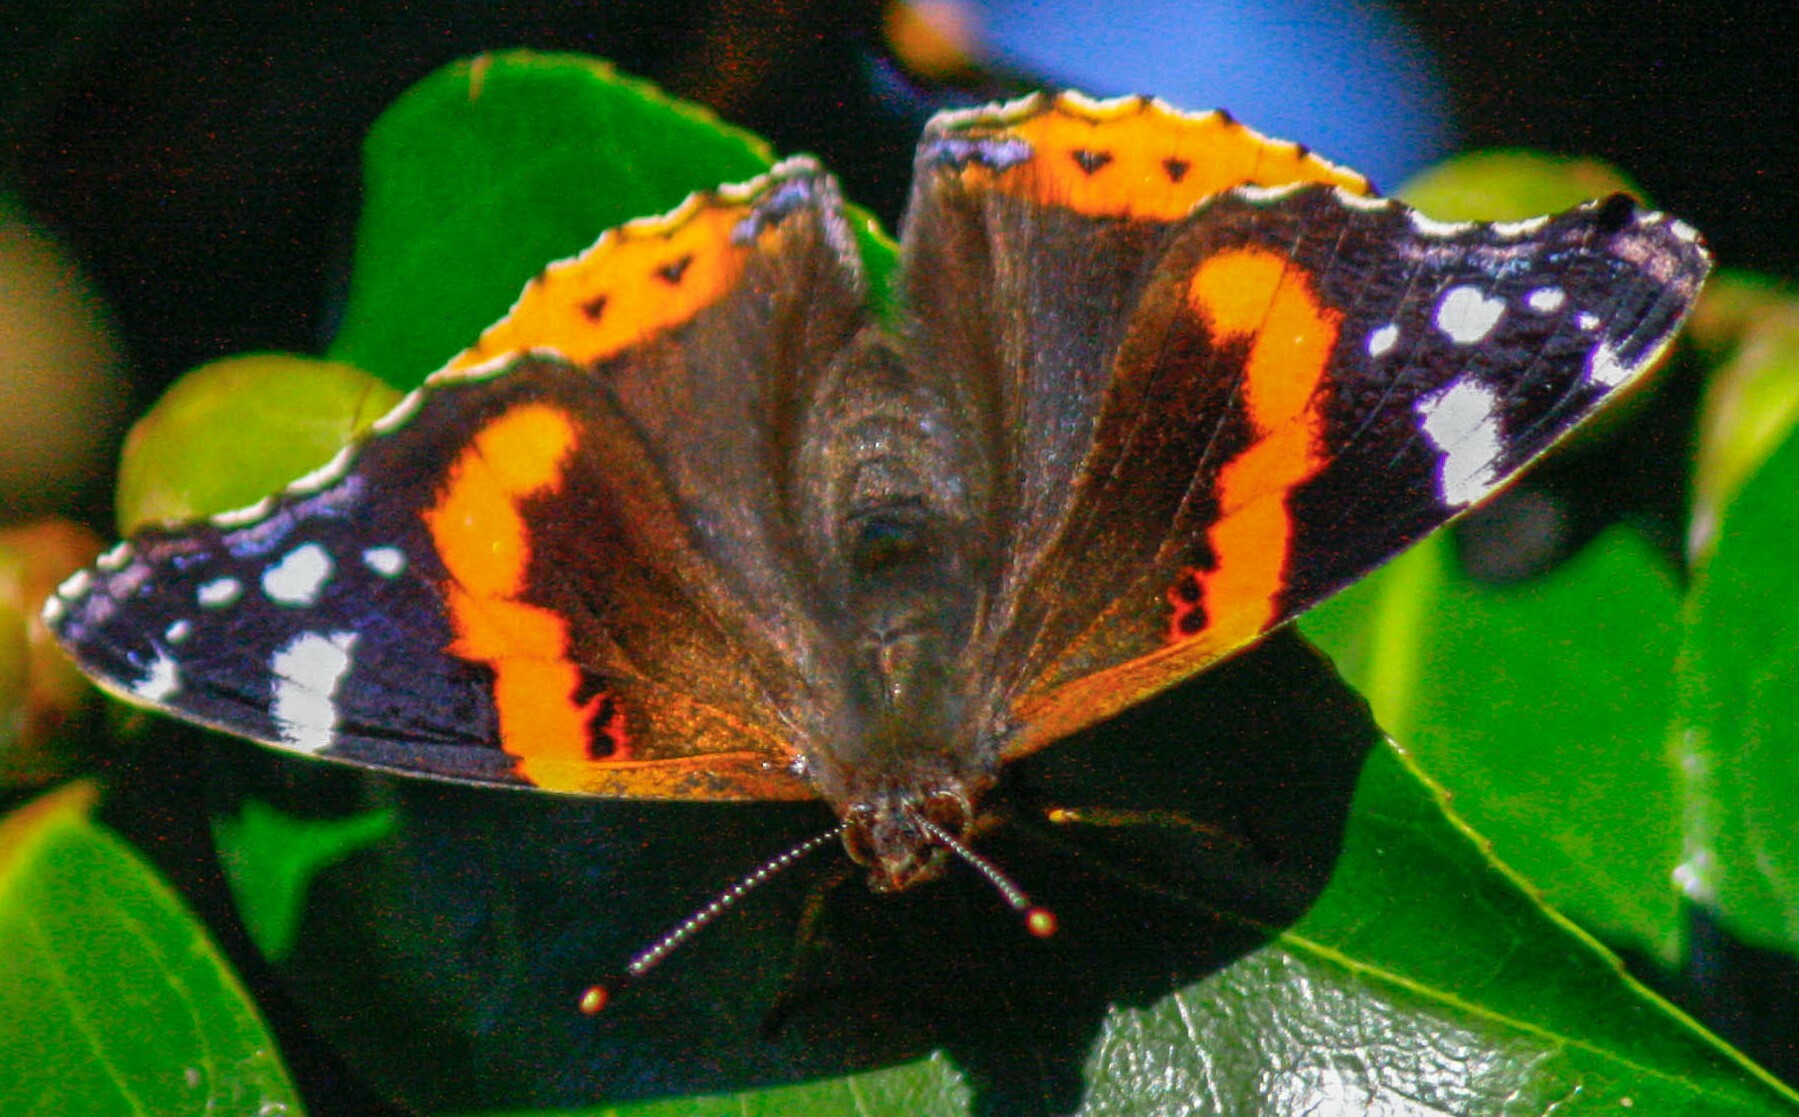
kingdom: Animalia
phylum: Arthropoda
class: Insecta
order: Lepidoptera
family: Nymphalidae
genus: Vanessa
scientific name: Vanessa atalanta
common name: Red admiral
